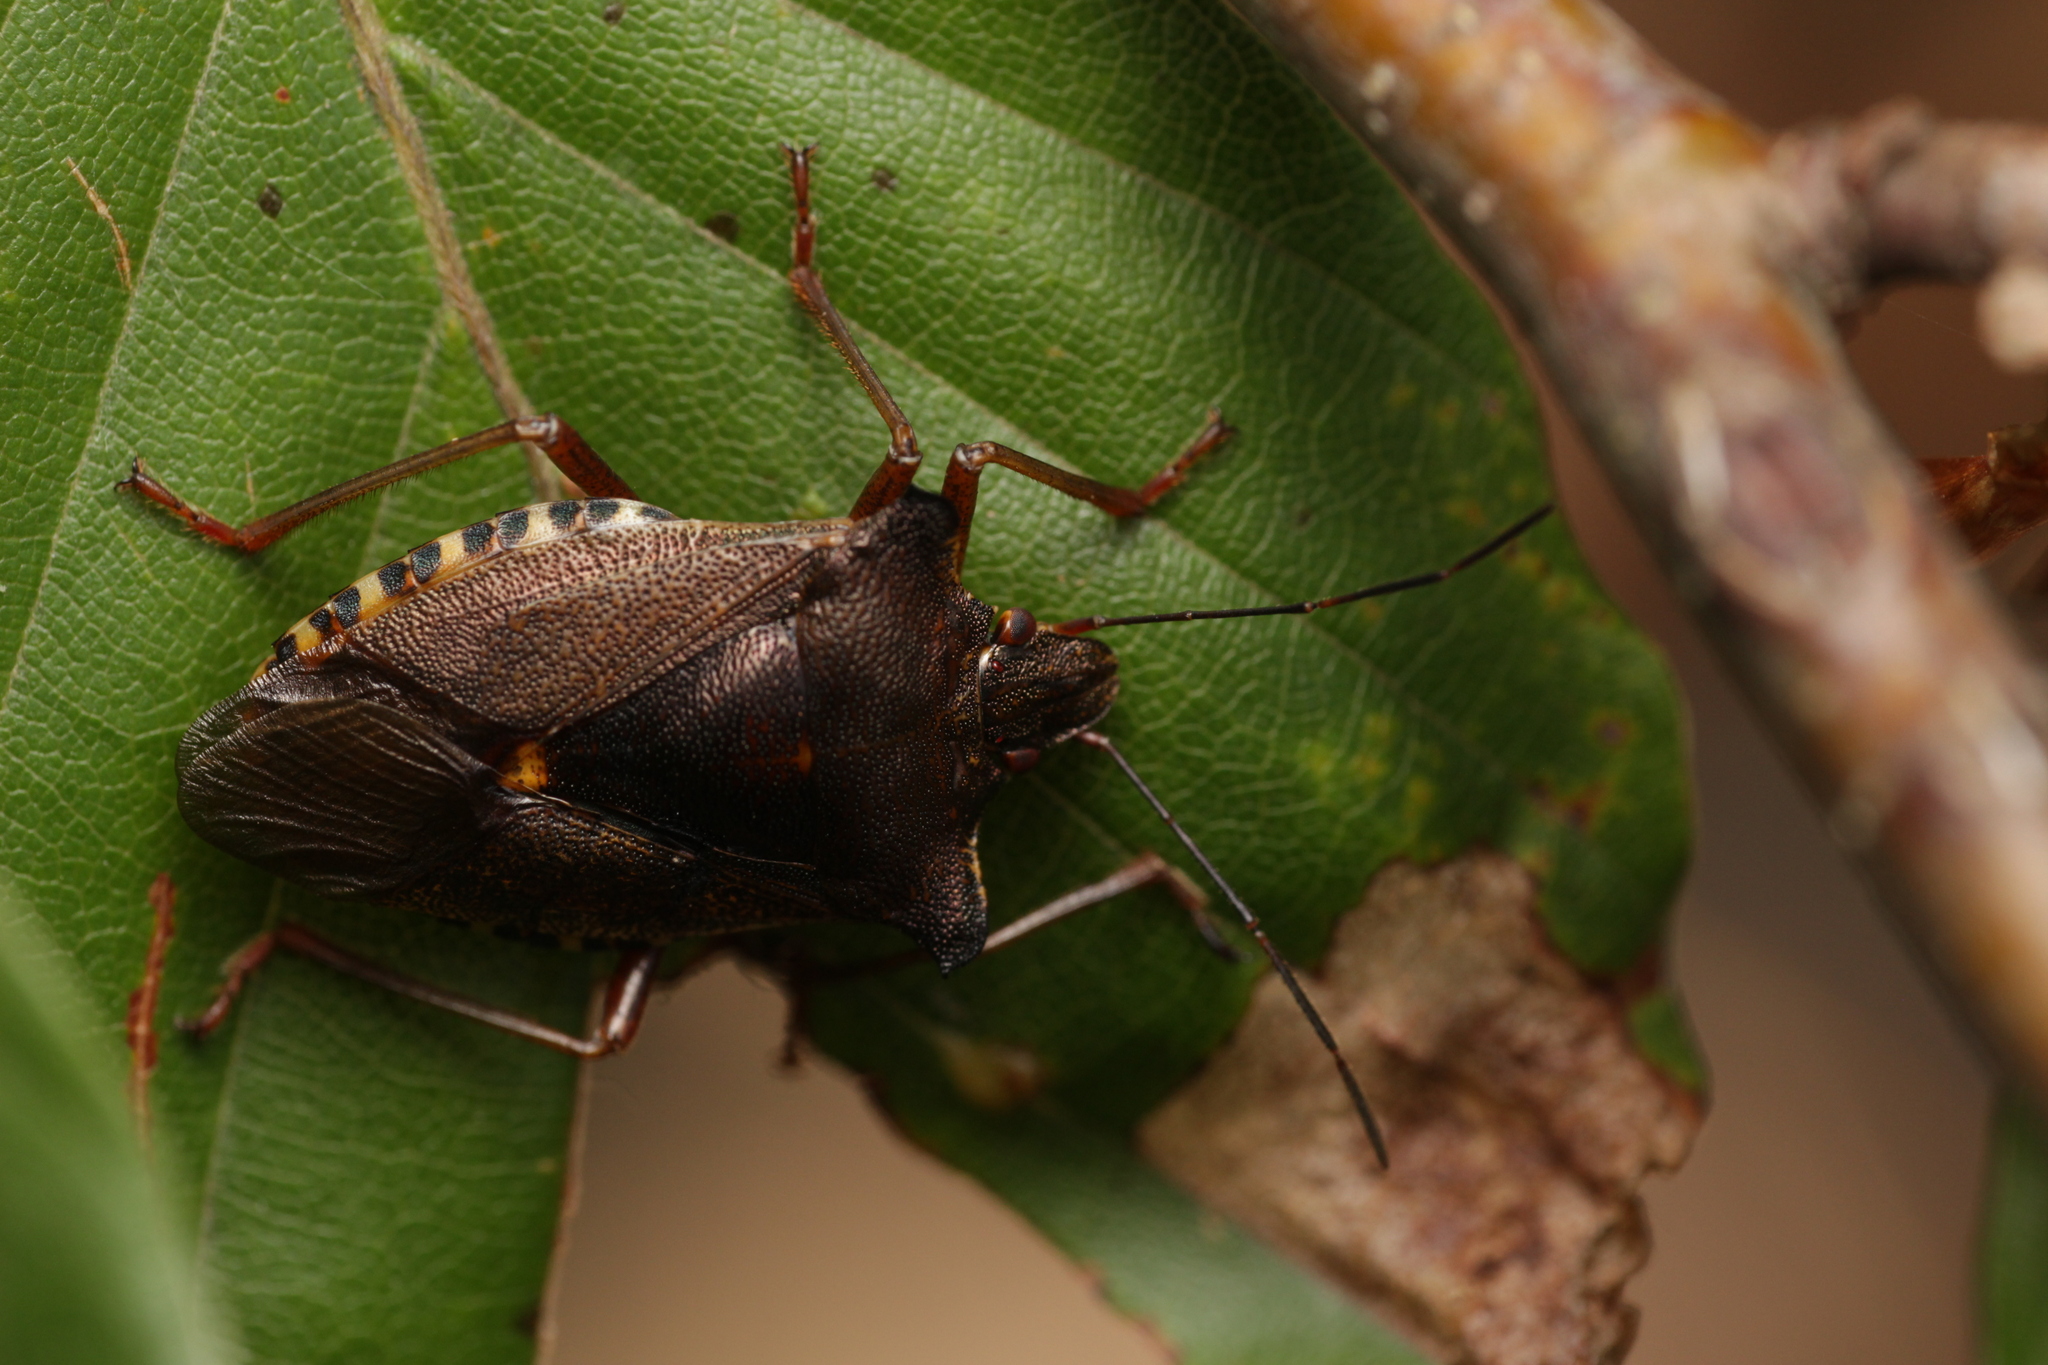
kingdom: Animalia
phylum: Arthropoda
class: Insecta
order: Hemiptera
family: Pentatomidae
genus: Pentatoma
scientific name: Pentatoma rufipes
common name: Forest bug
